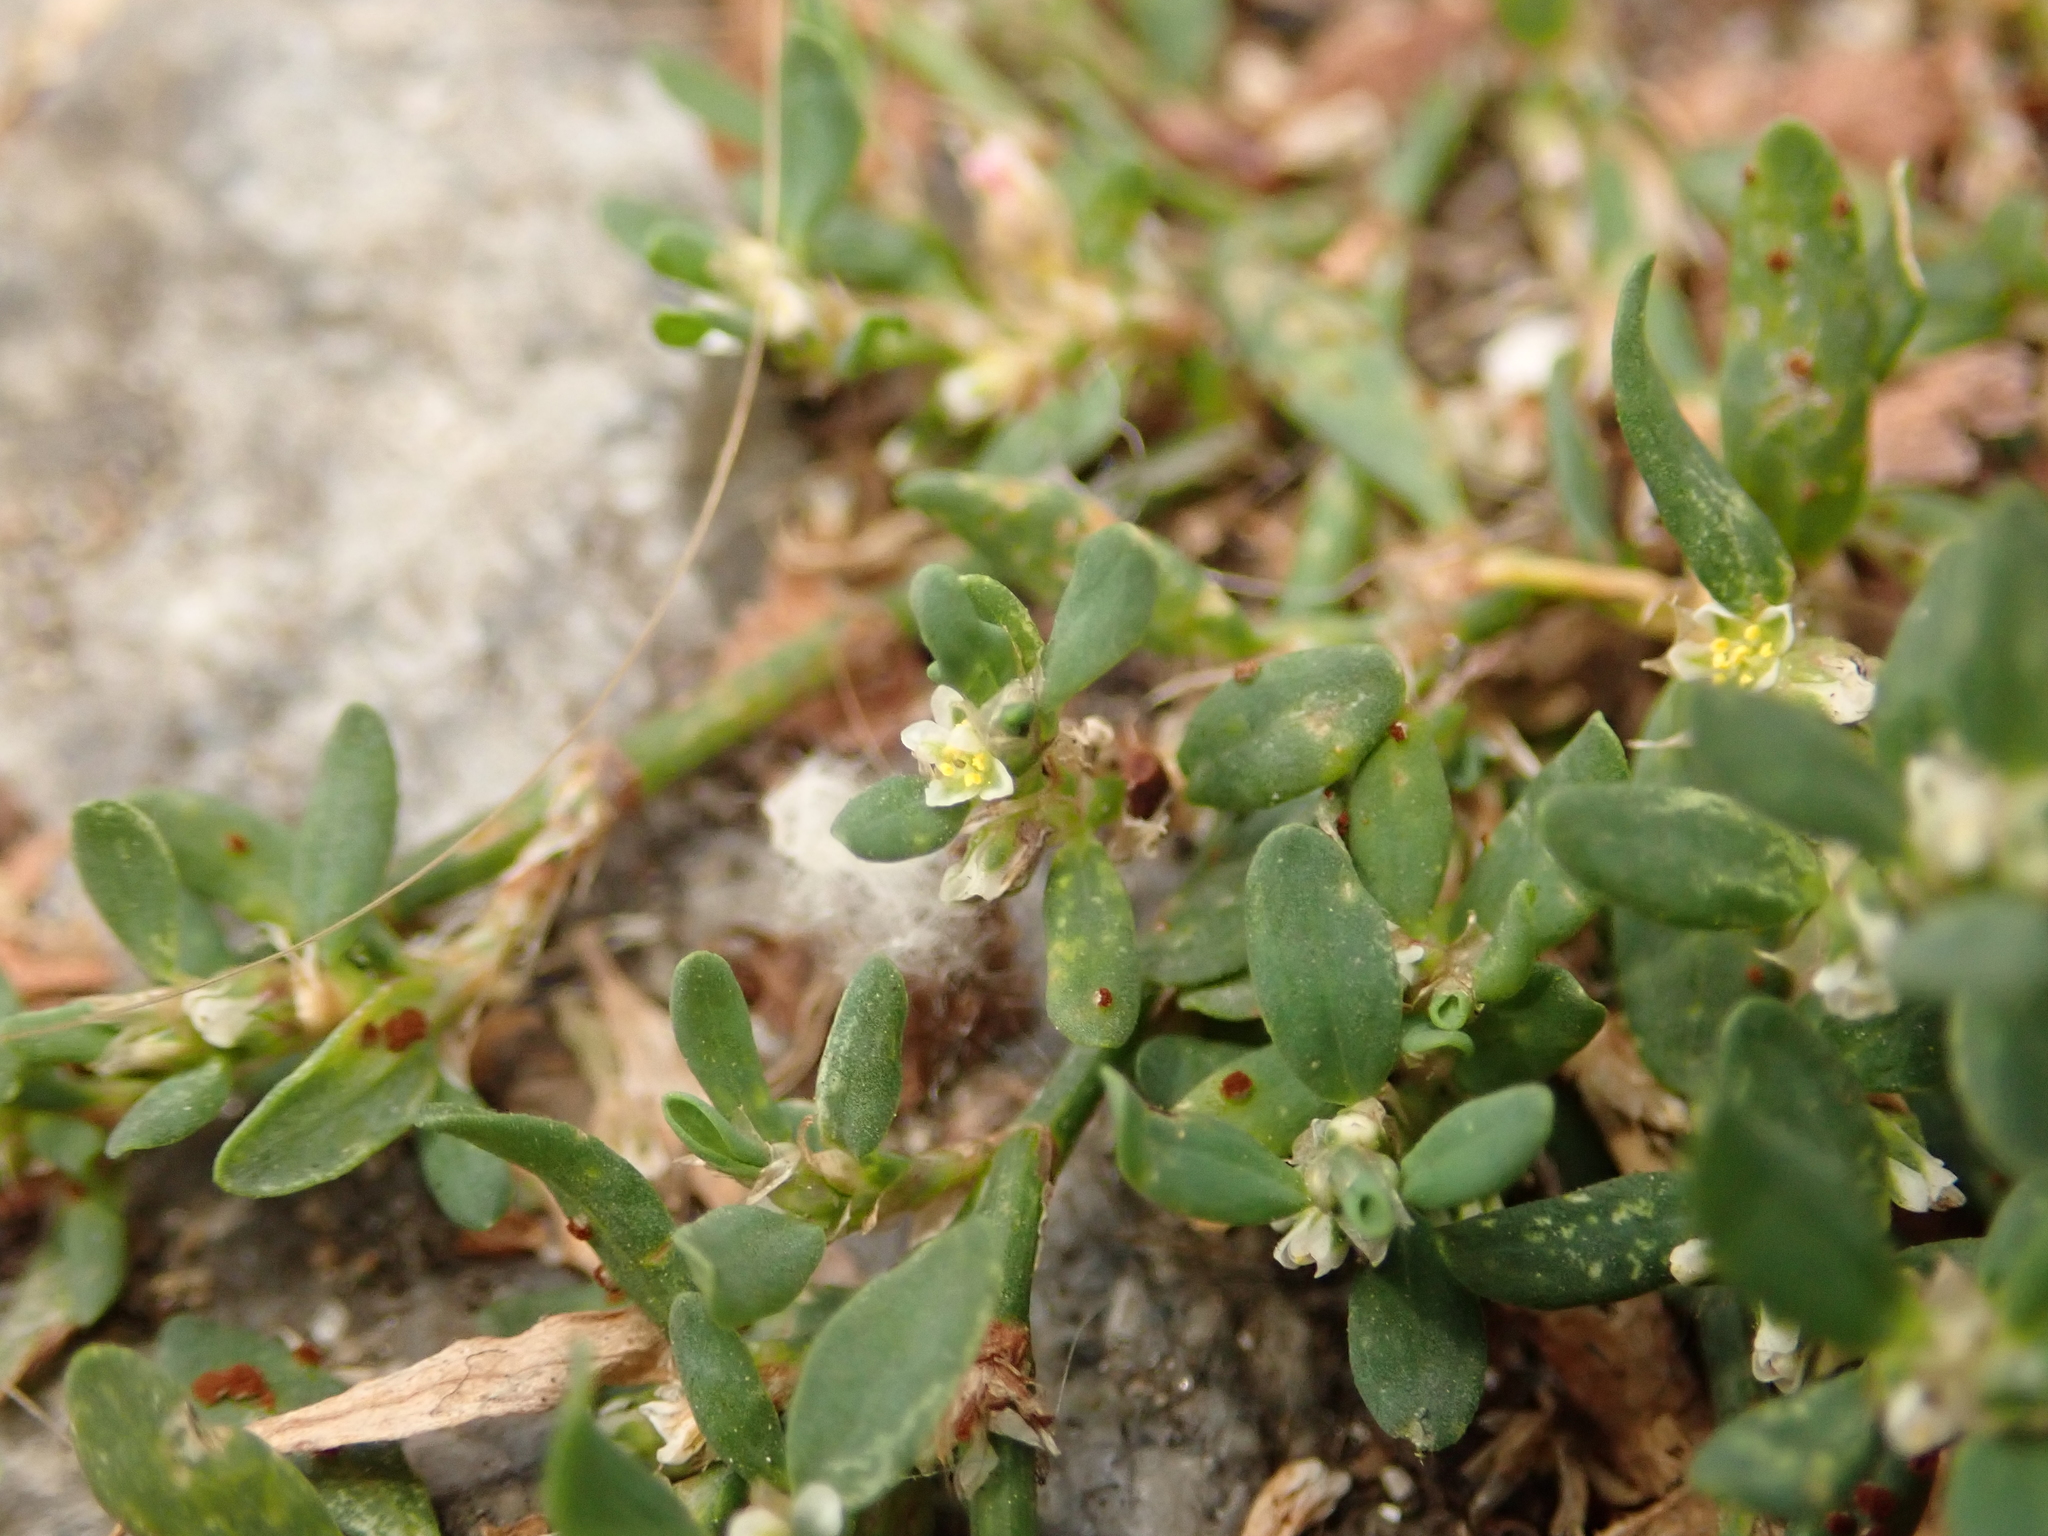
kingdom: Plantae
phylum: Tracheophyta
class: Magnoliopsida
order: Caryophyllales
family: Polygonaceae
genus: Polygonum
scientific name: Polygonum aviculare
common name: Prostrate knotweed
